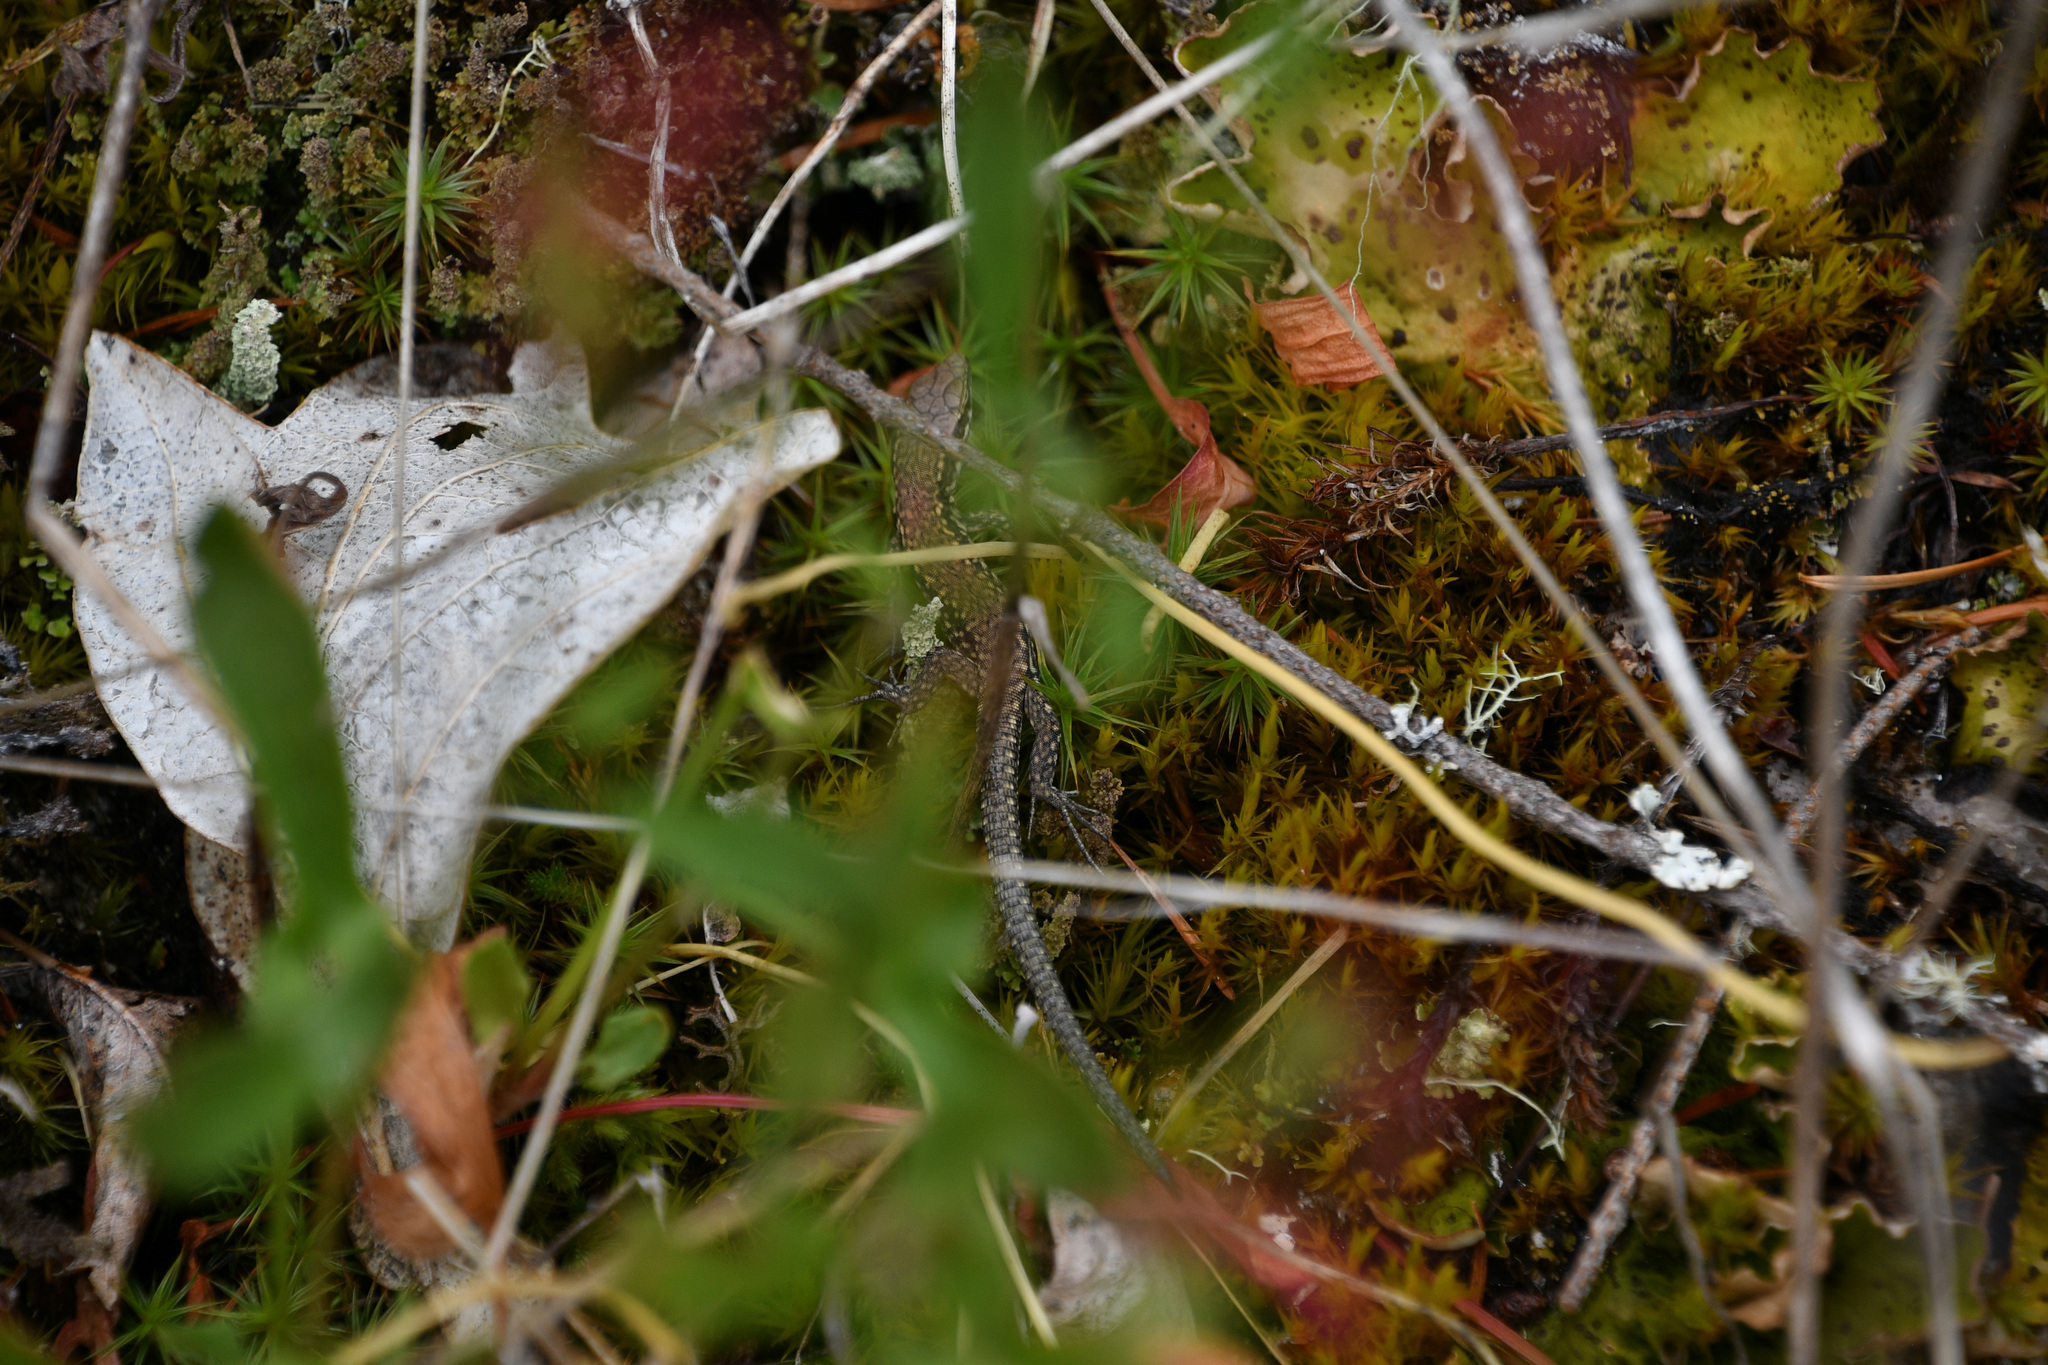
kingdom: Animalia
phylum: Chordata
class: Squamata
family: Lacertidae
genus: Podarcis
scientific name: Podarcis muralis
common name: Common wall lizard
